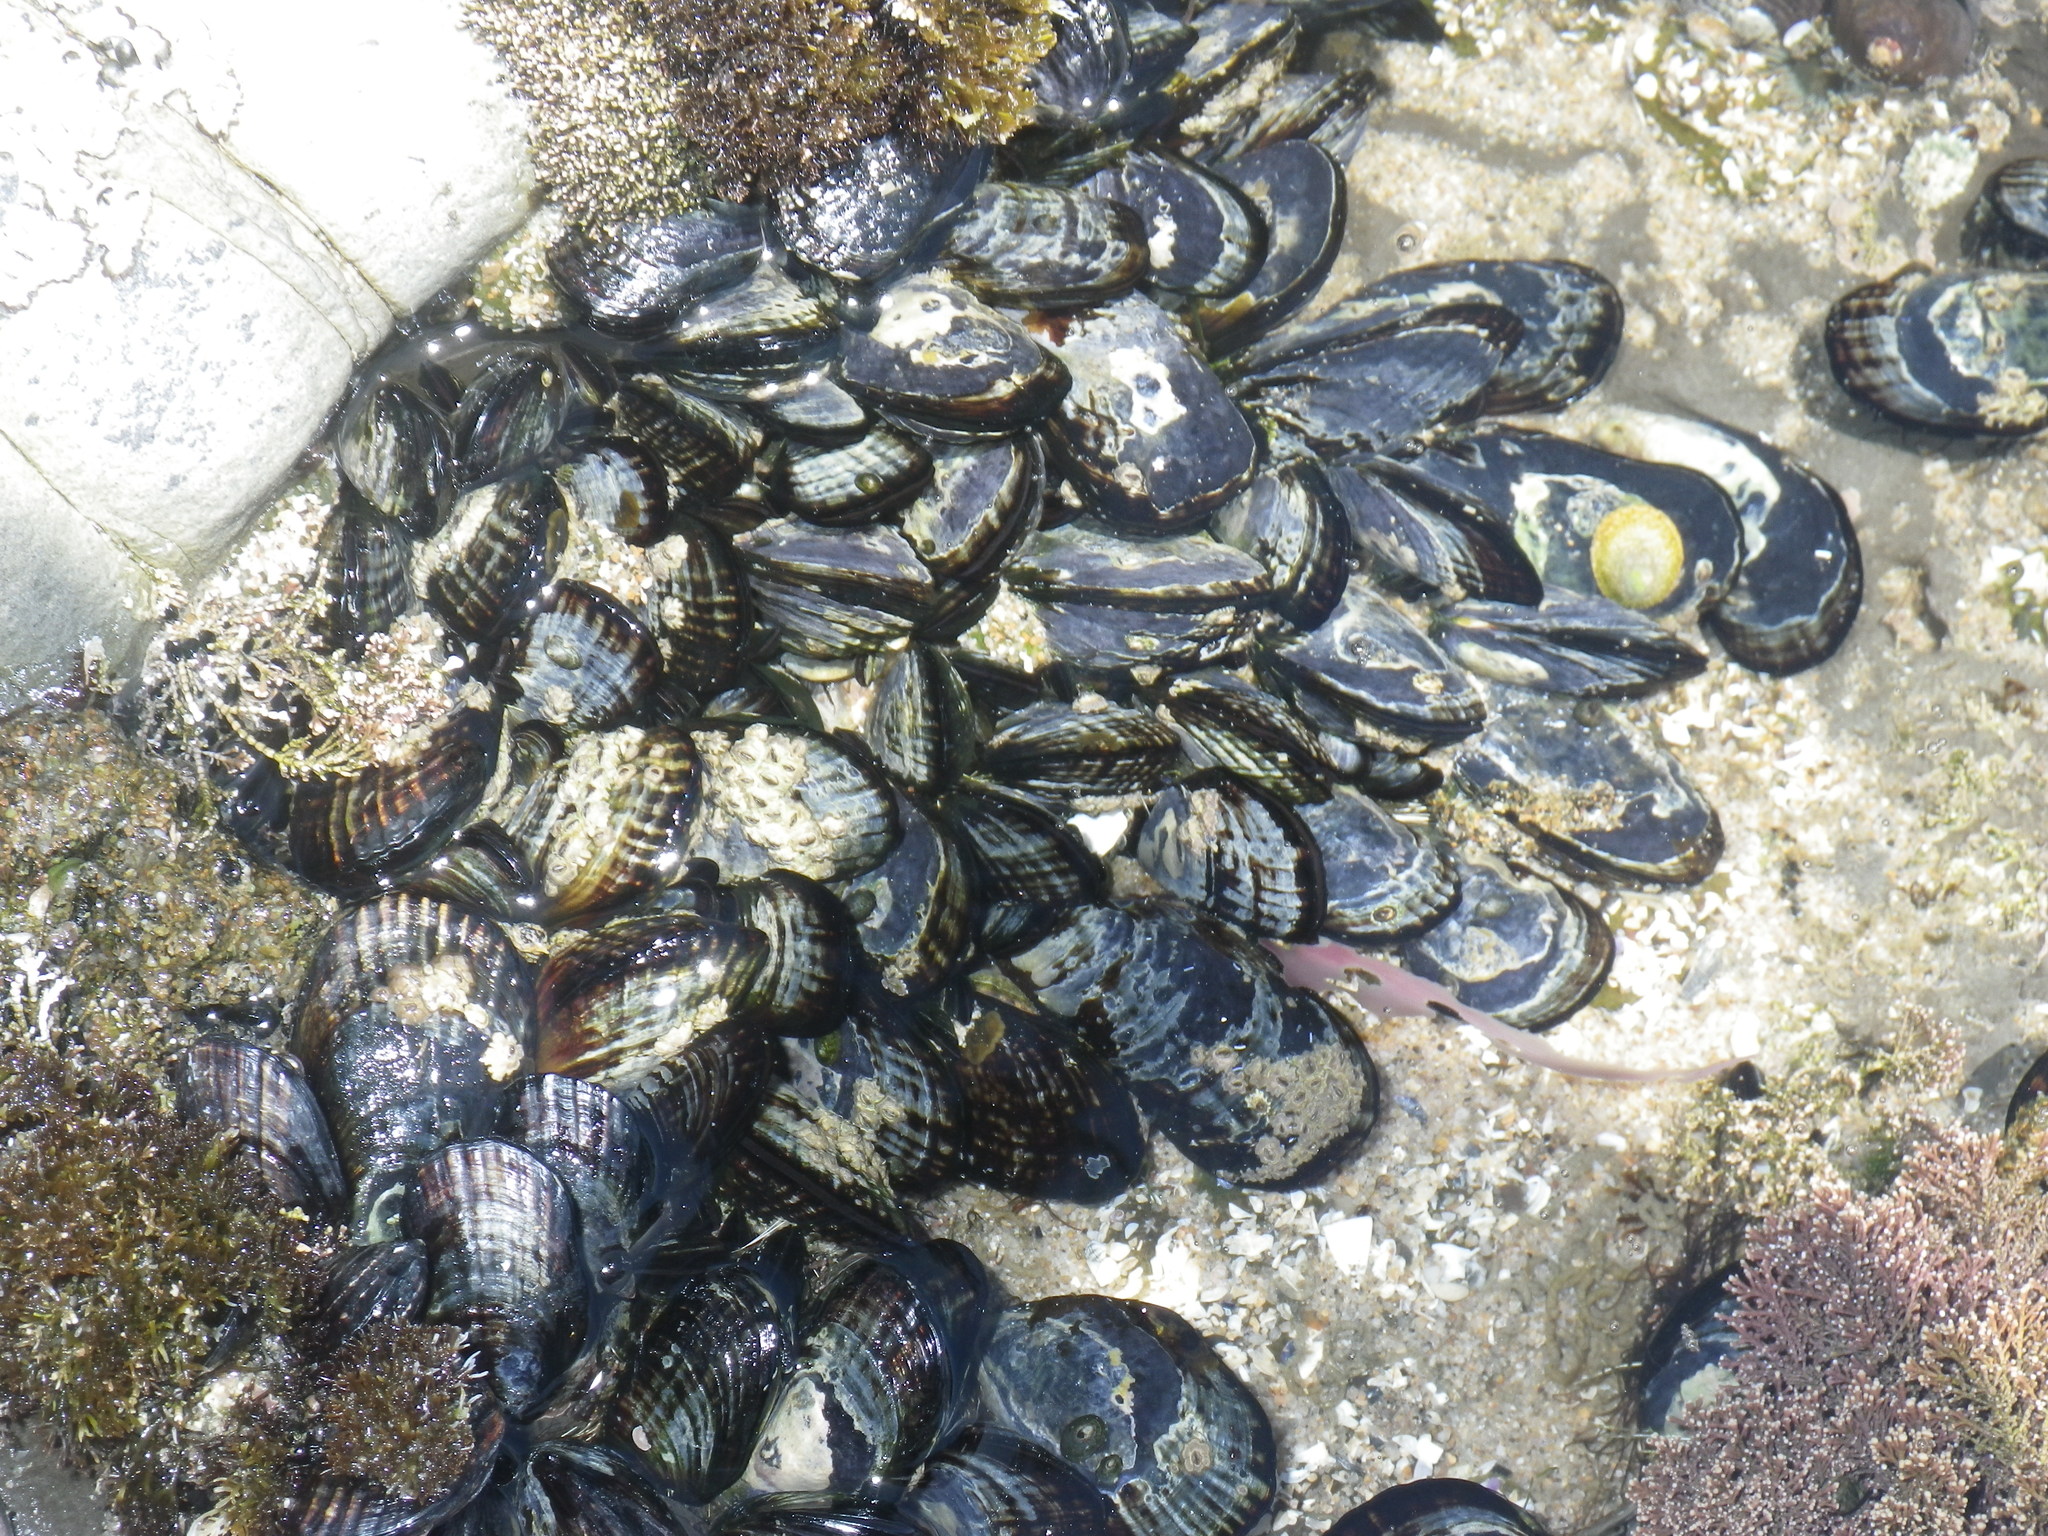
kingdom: Animalia
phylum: Mollusca
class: Bivalvia
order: Mytilida
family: Mytilidae
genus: Mytilus
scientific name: Mytilus californianus
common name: California mussel
